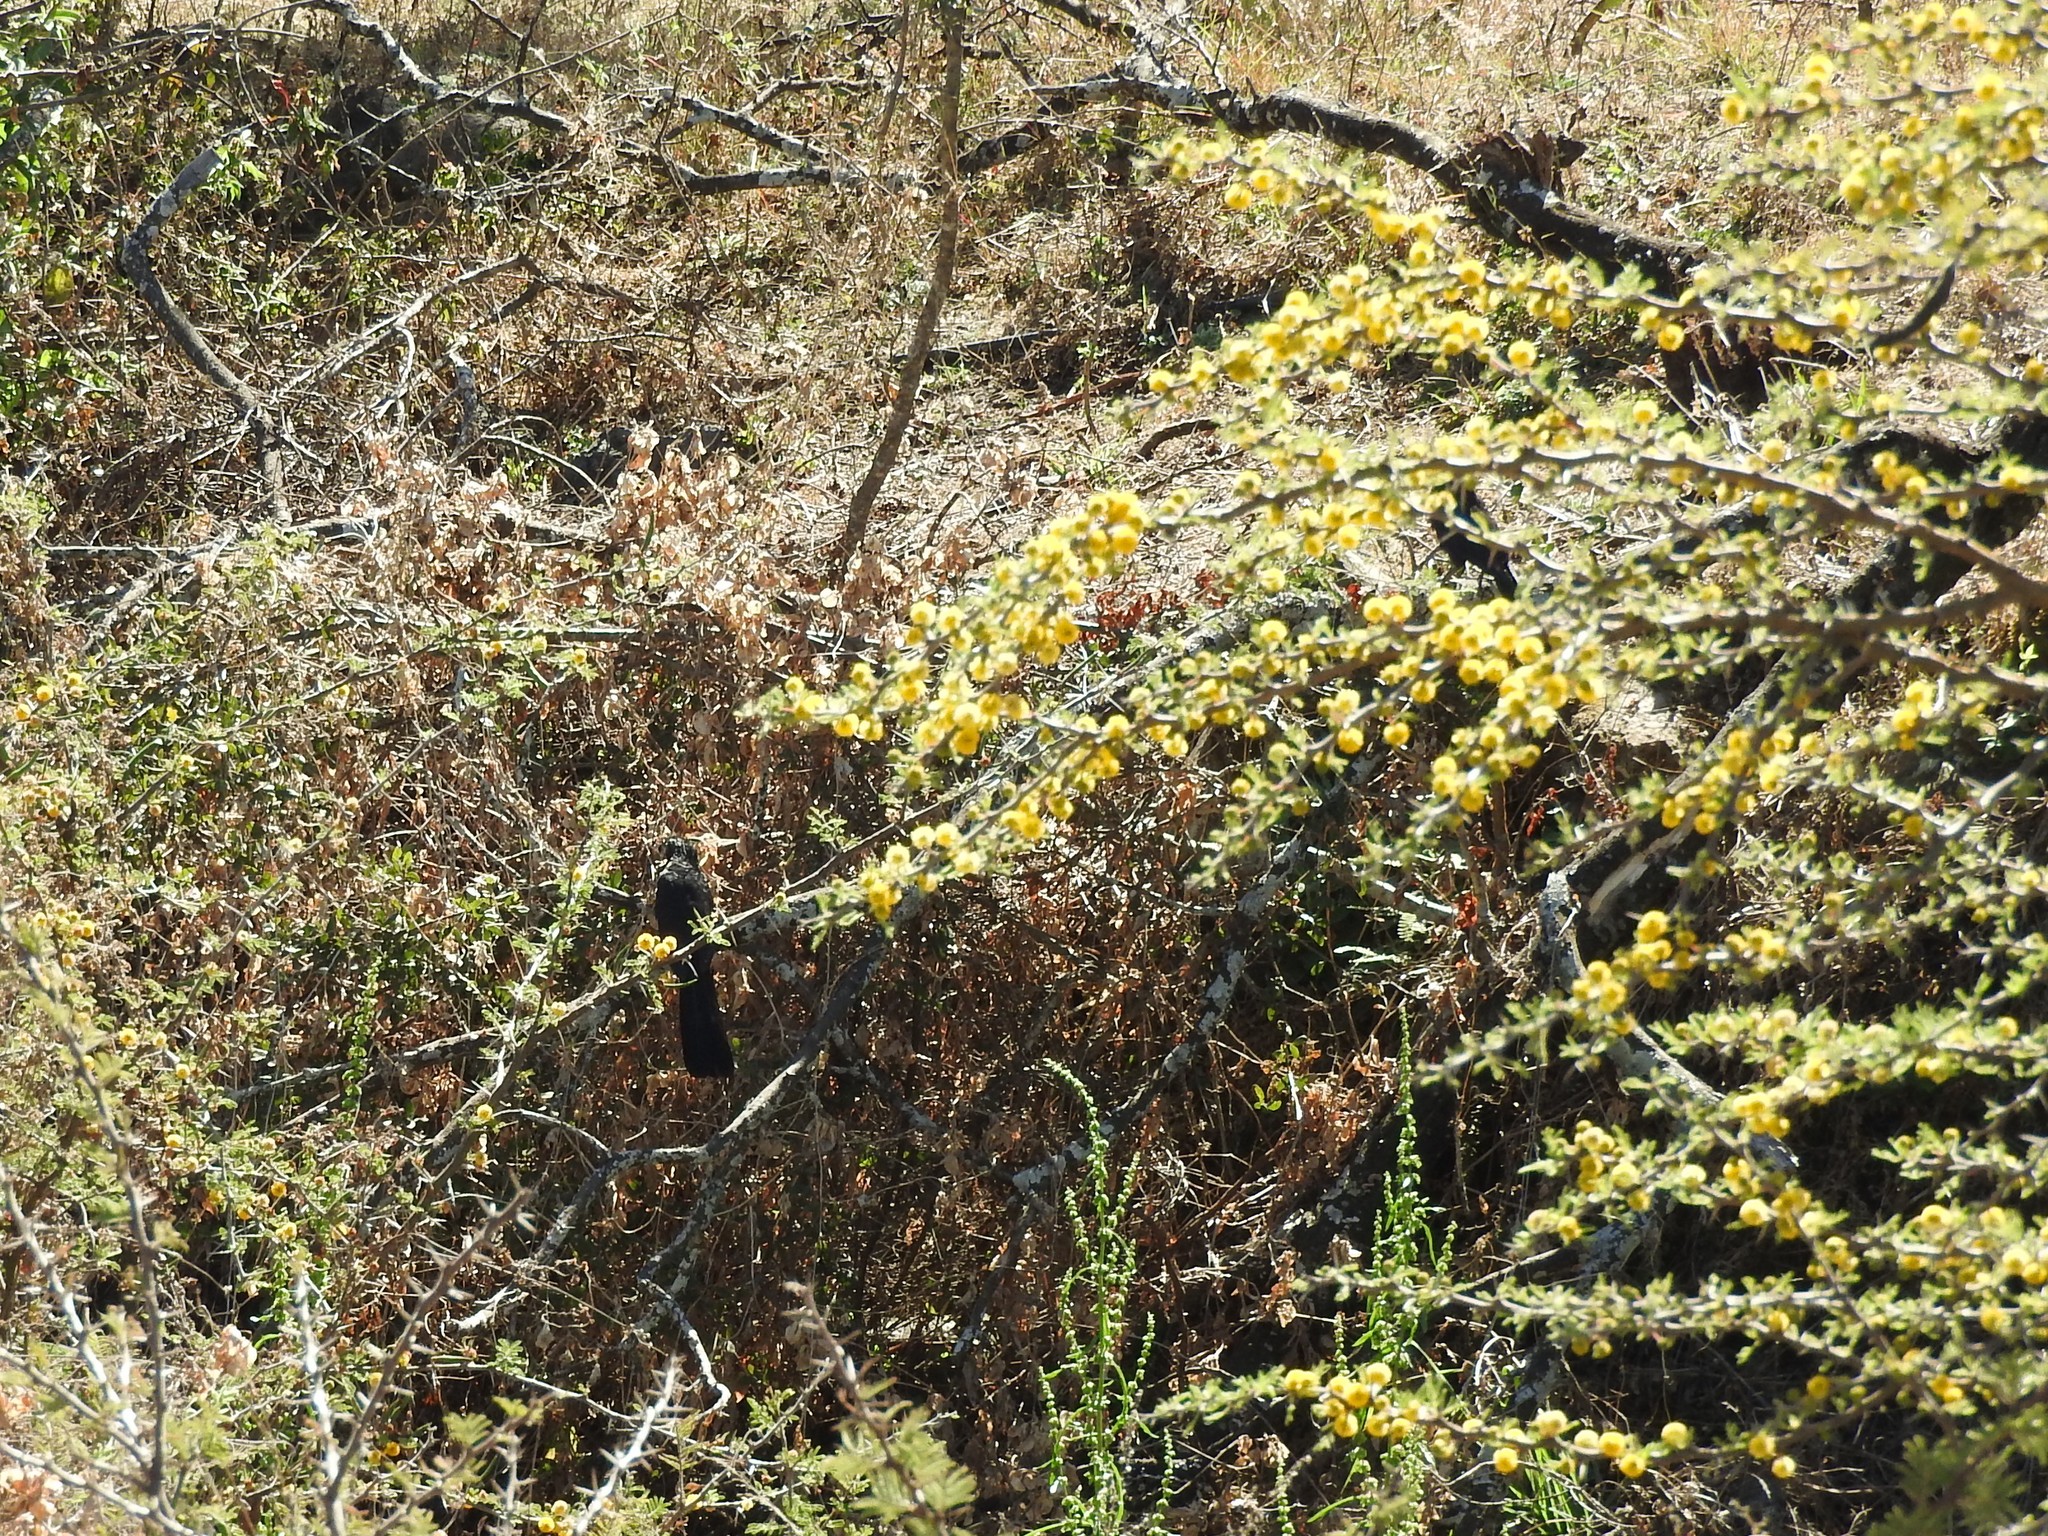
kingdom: Animalia
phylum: Chordata
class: Aves
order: Cuculiformes
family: Cuculidae
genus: Crotophaga
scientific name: Crotophaga sulcirostris
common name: Groove-billed ani
